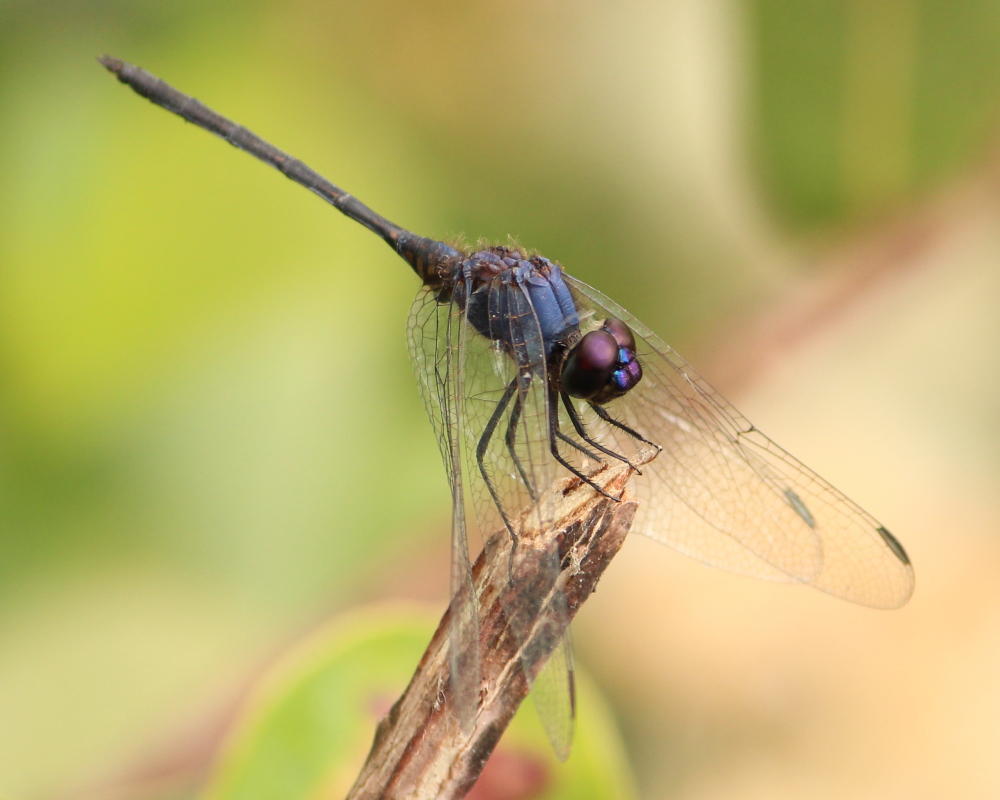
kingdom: Animalia
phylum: Arthropoda
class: Insecta
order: Odonata
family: Libellulidae
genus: Trithemis
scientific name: Trithemis hecate
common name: Silhouette dropwing
